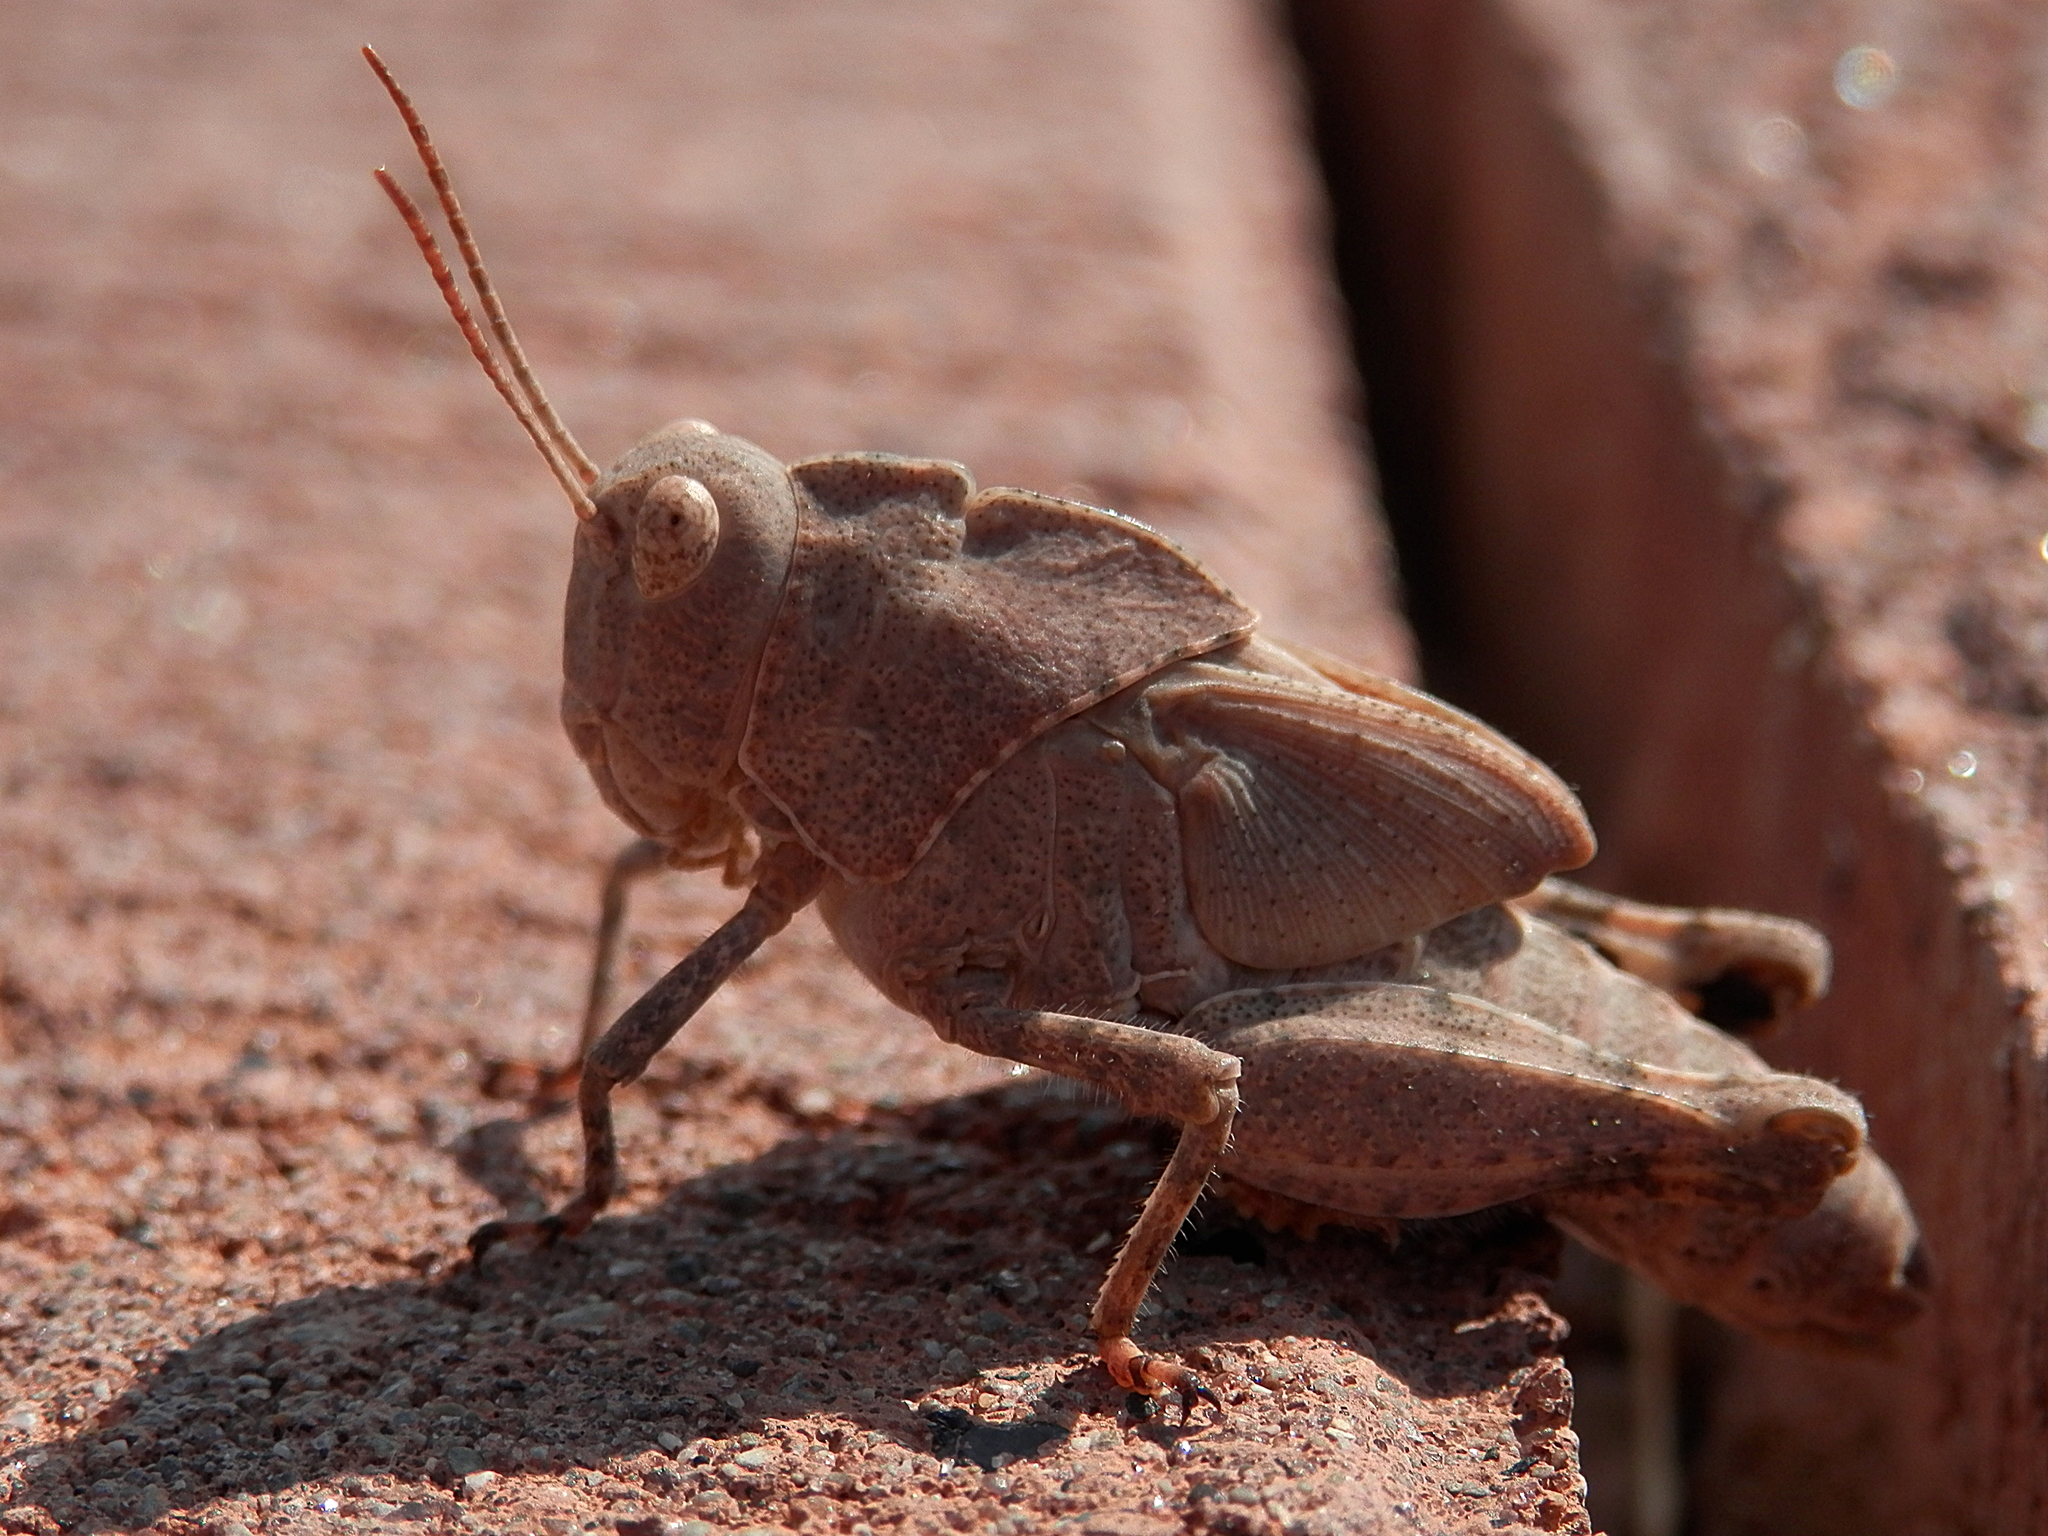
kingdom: Animalia
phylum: Arthropoda
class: Insecta
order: Orthoptera
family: Acrididae
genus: Dissosteira
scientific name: Dissosteira carolina
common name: Carolina grasshopper
